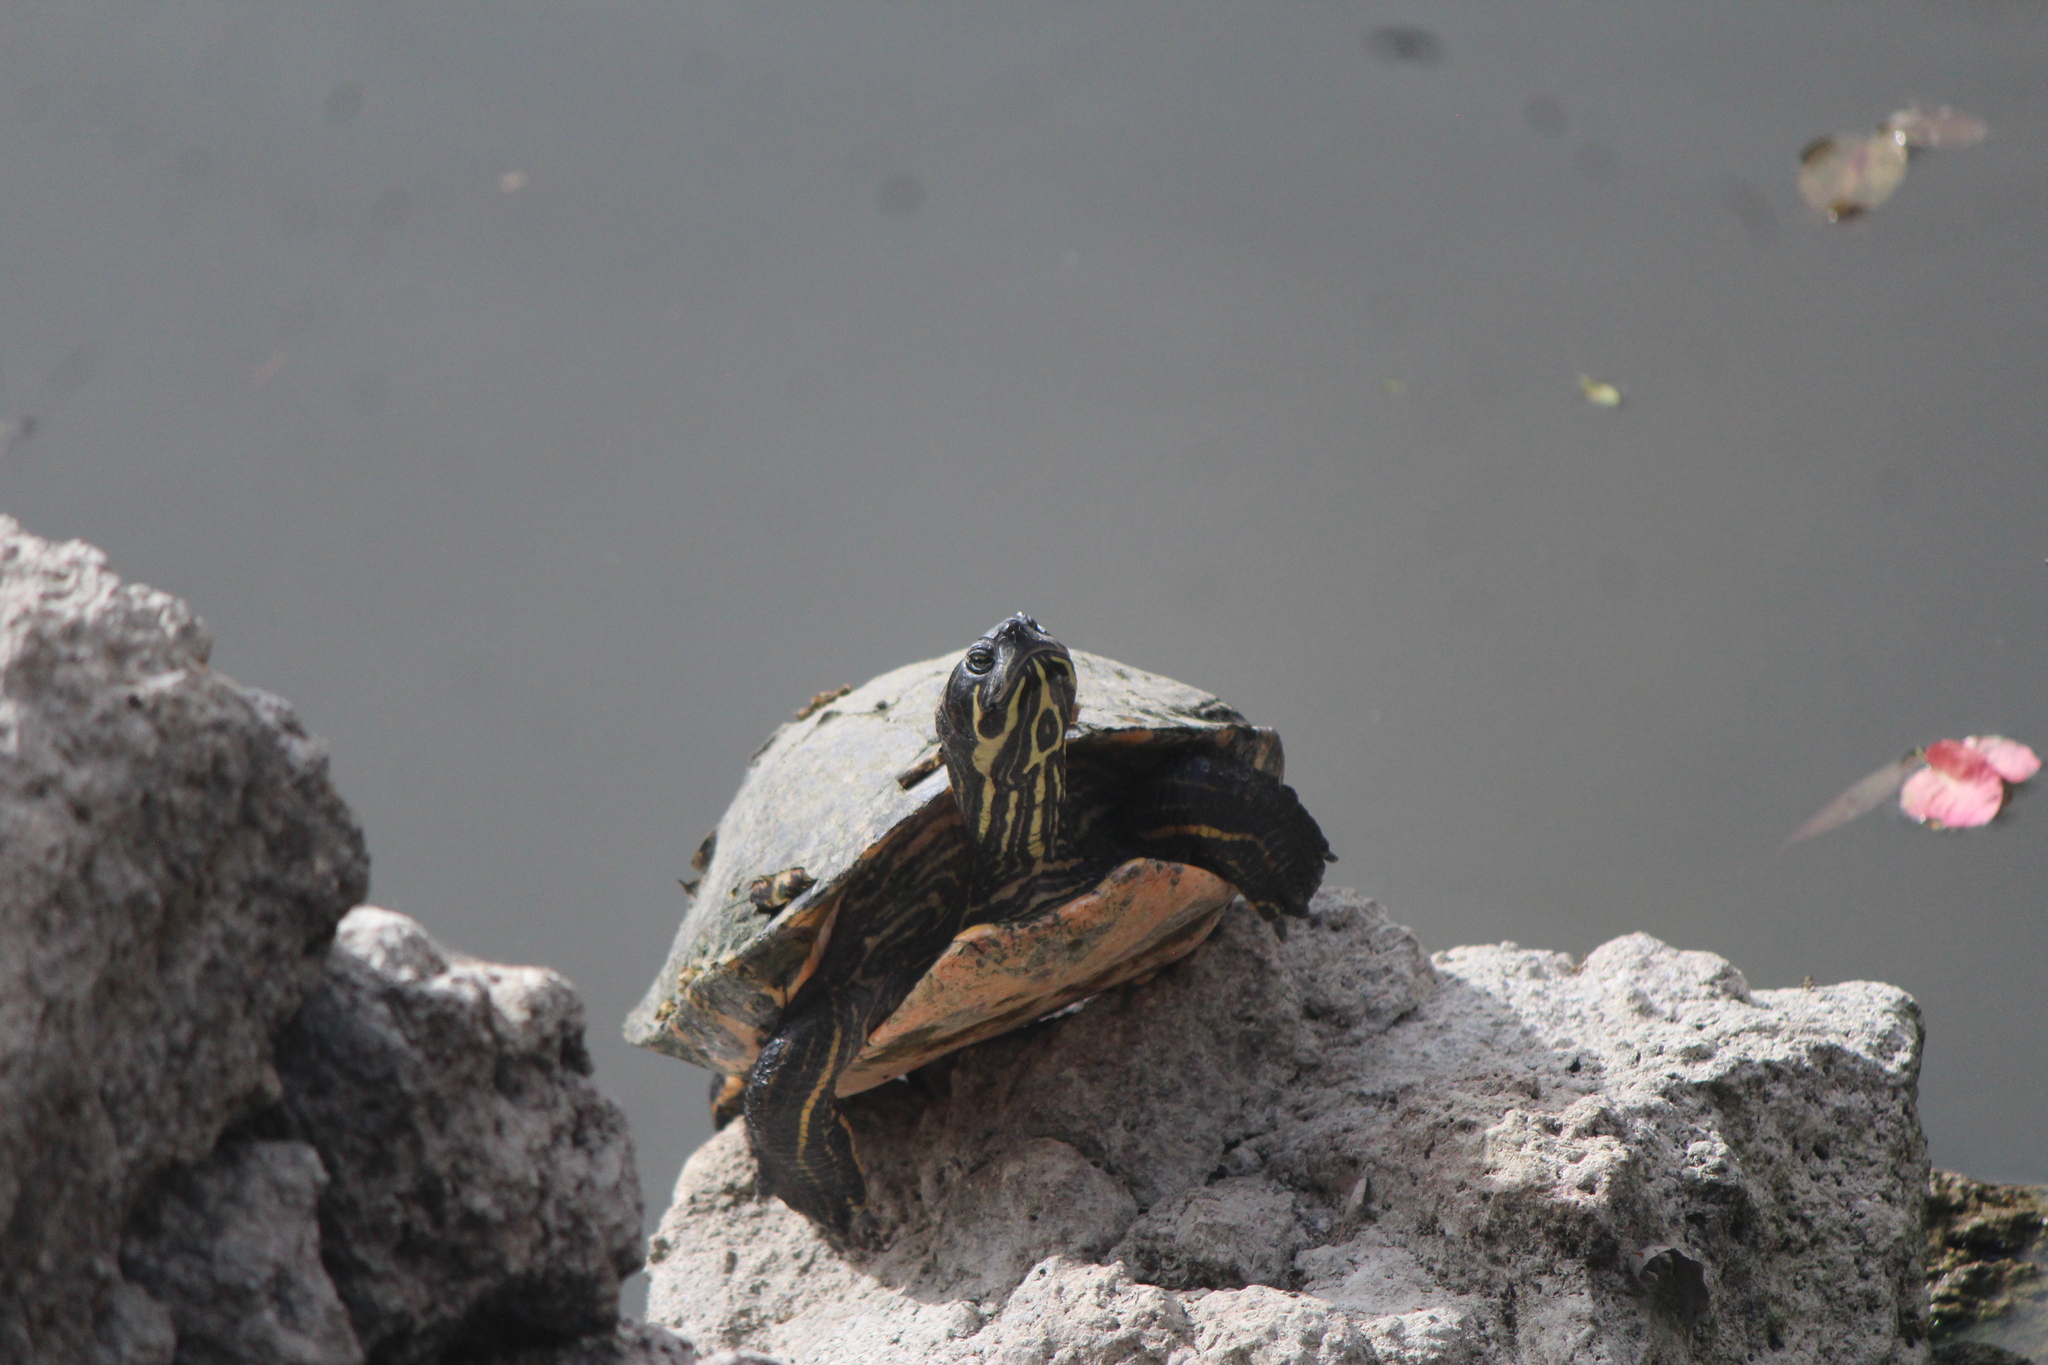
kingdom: Animalia
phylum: Chordata
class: Testudines
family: Emydidae
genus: Pseudemys
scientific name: Pseudemys
